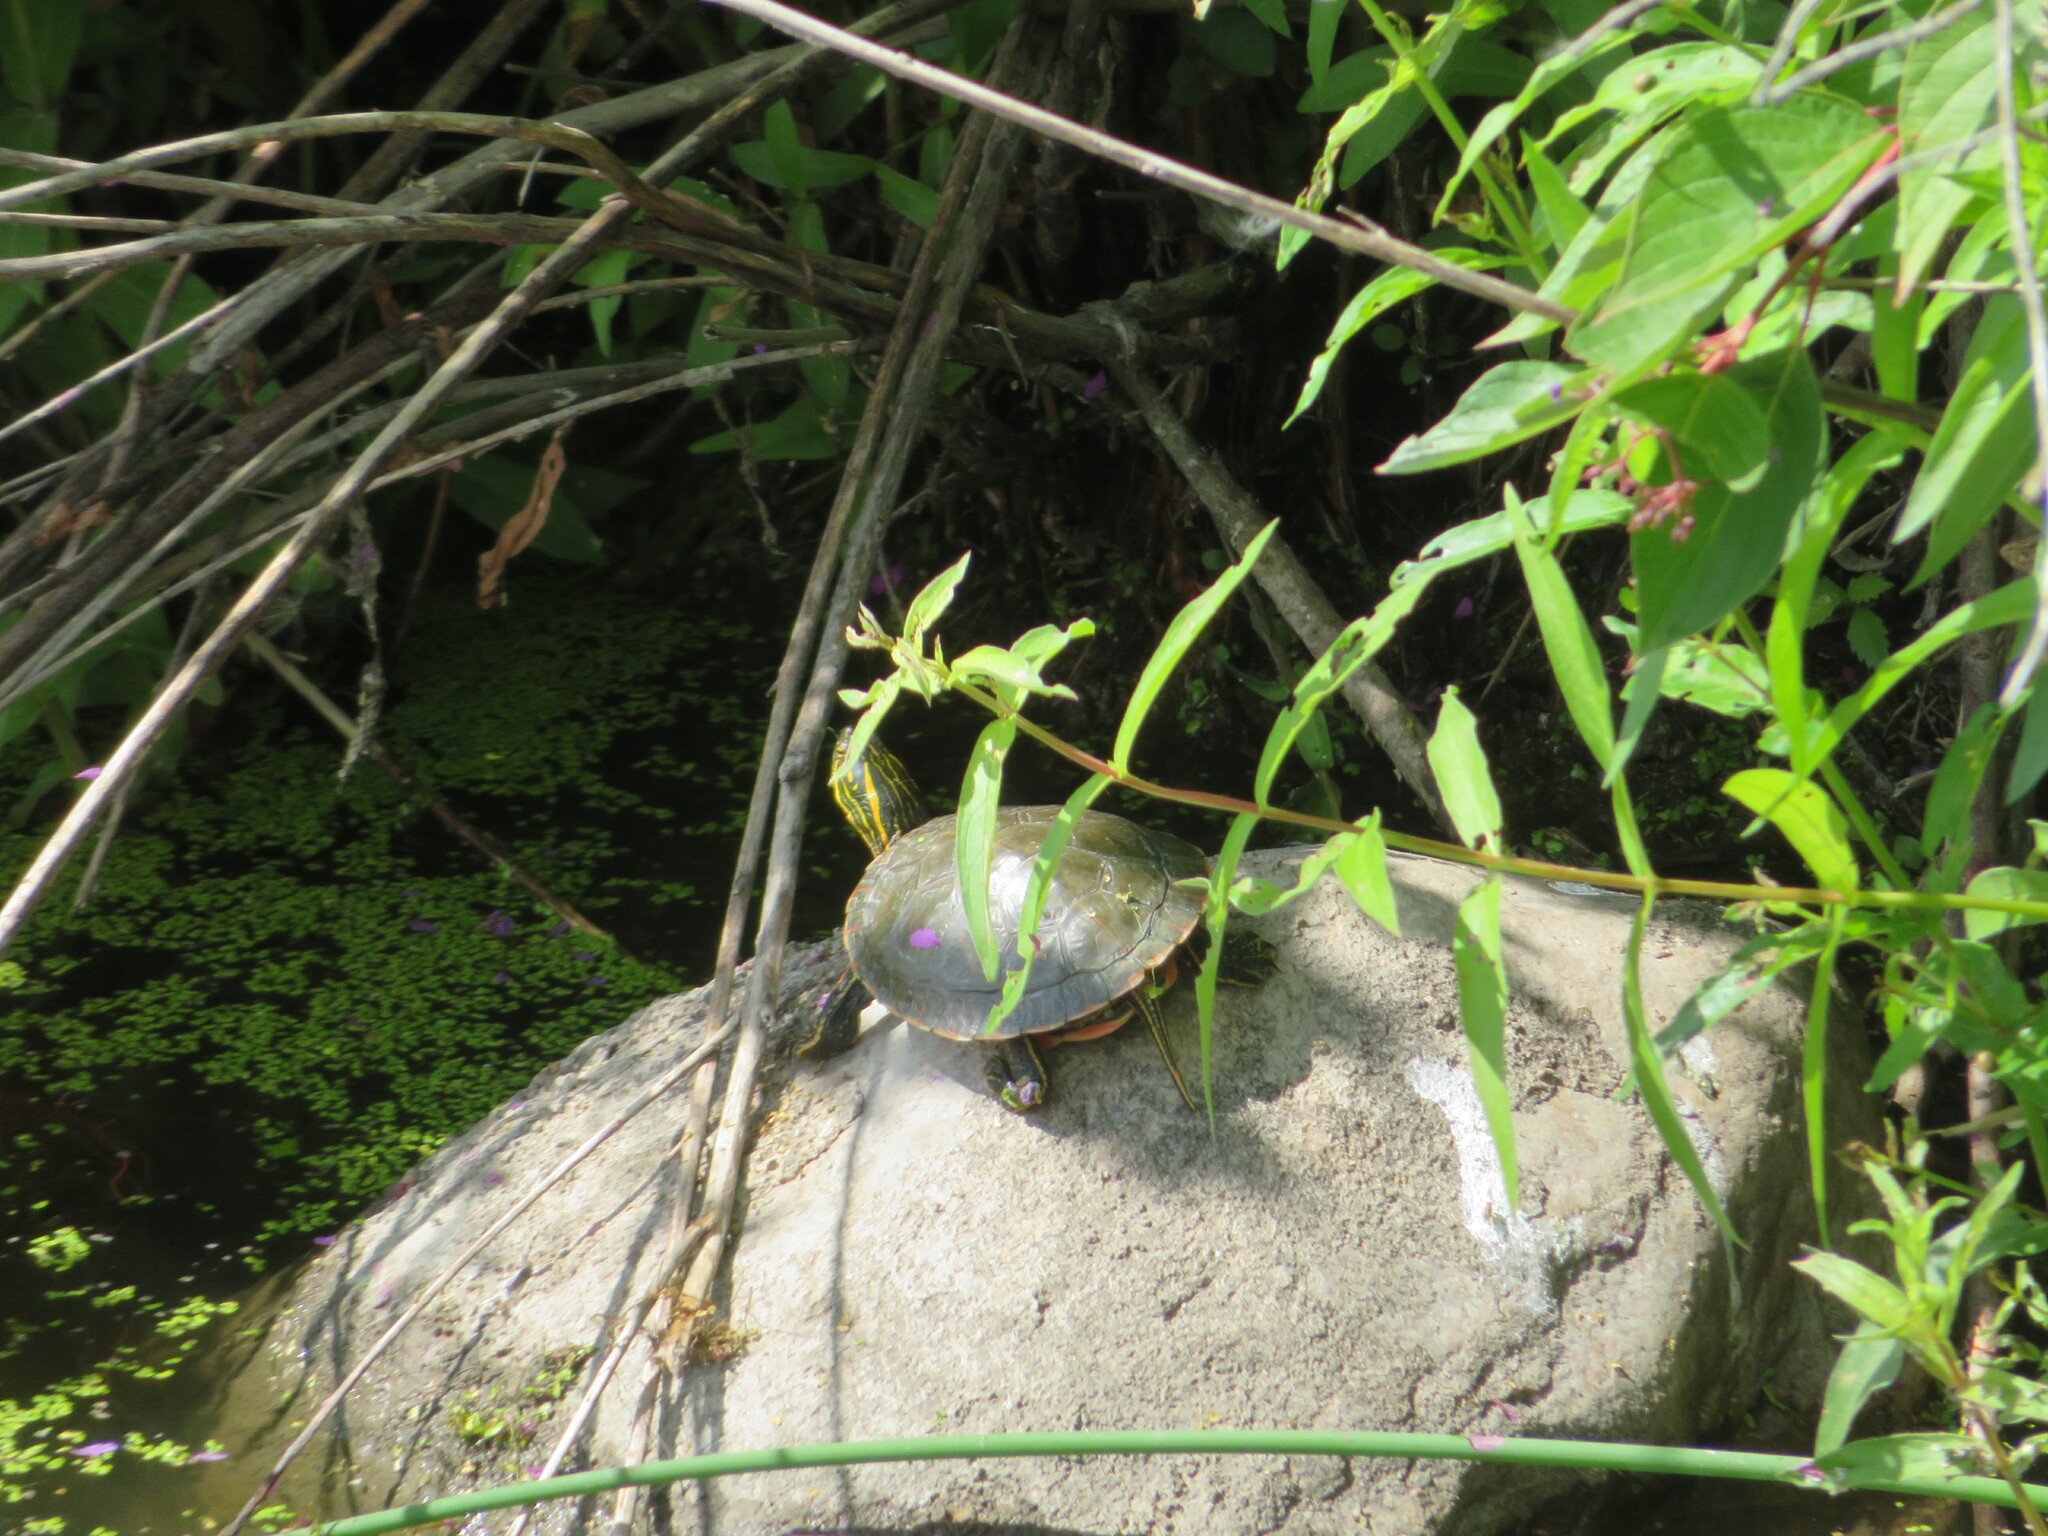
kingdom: Animalia
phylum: Chordata
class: Testudines
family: Emydidae
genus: Chrysemys
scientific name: Chrysemys picta
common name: Painted turtle
